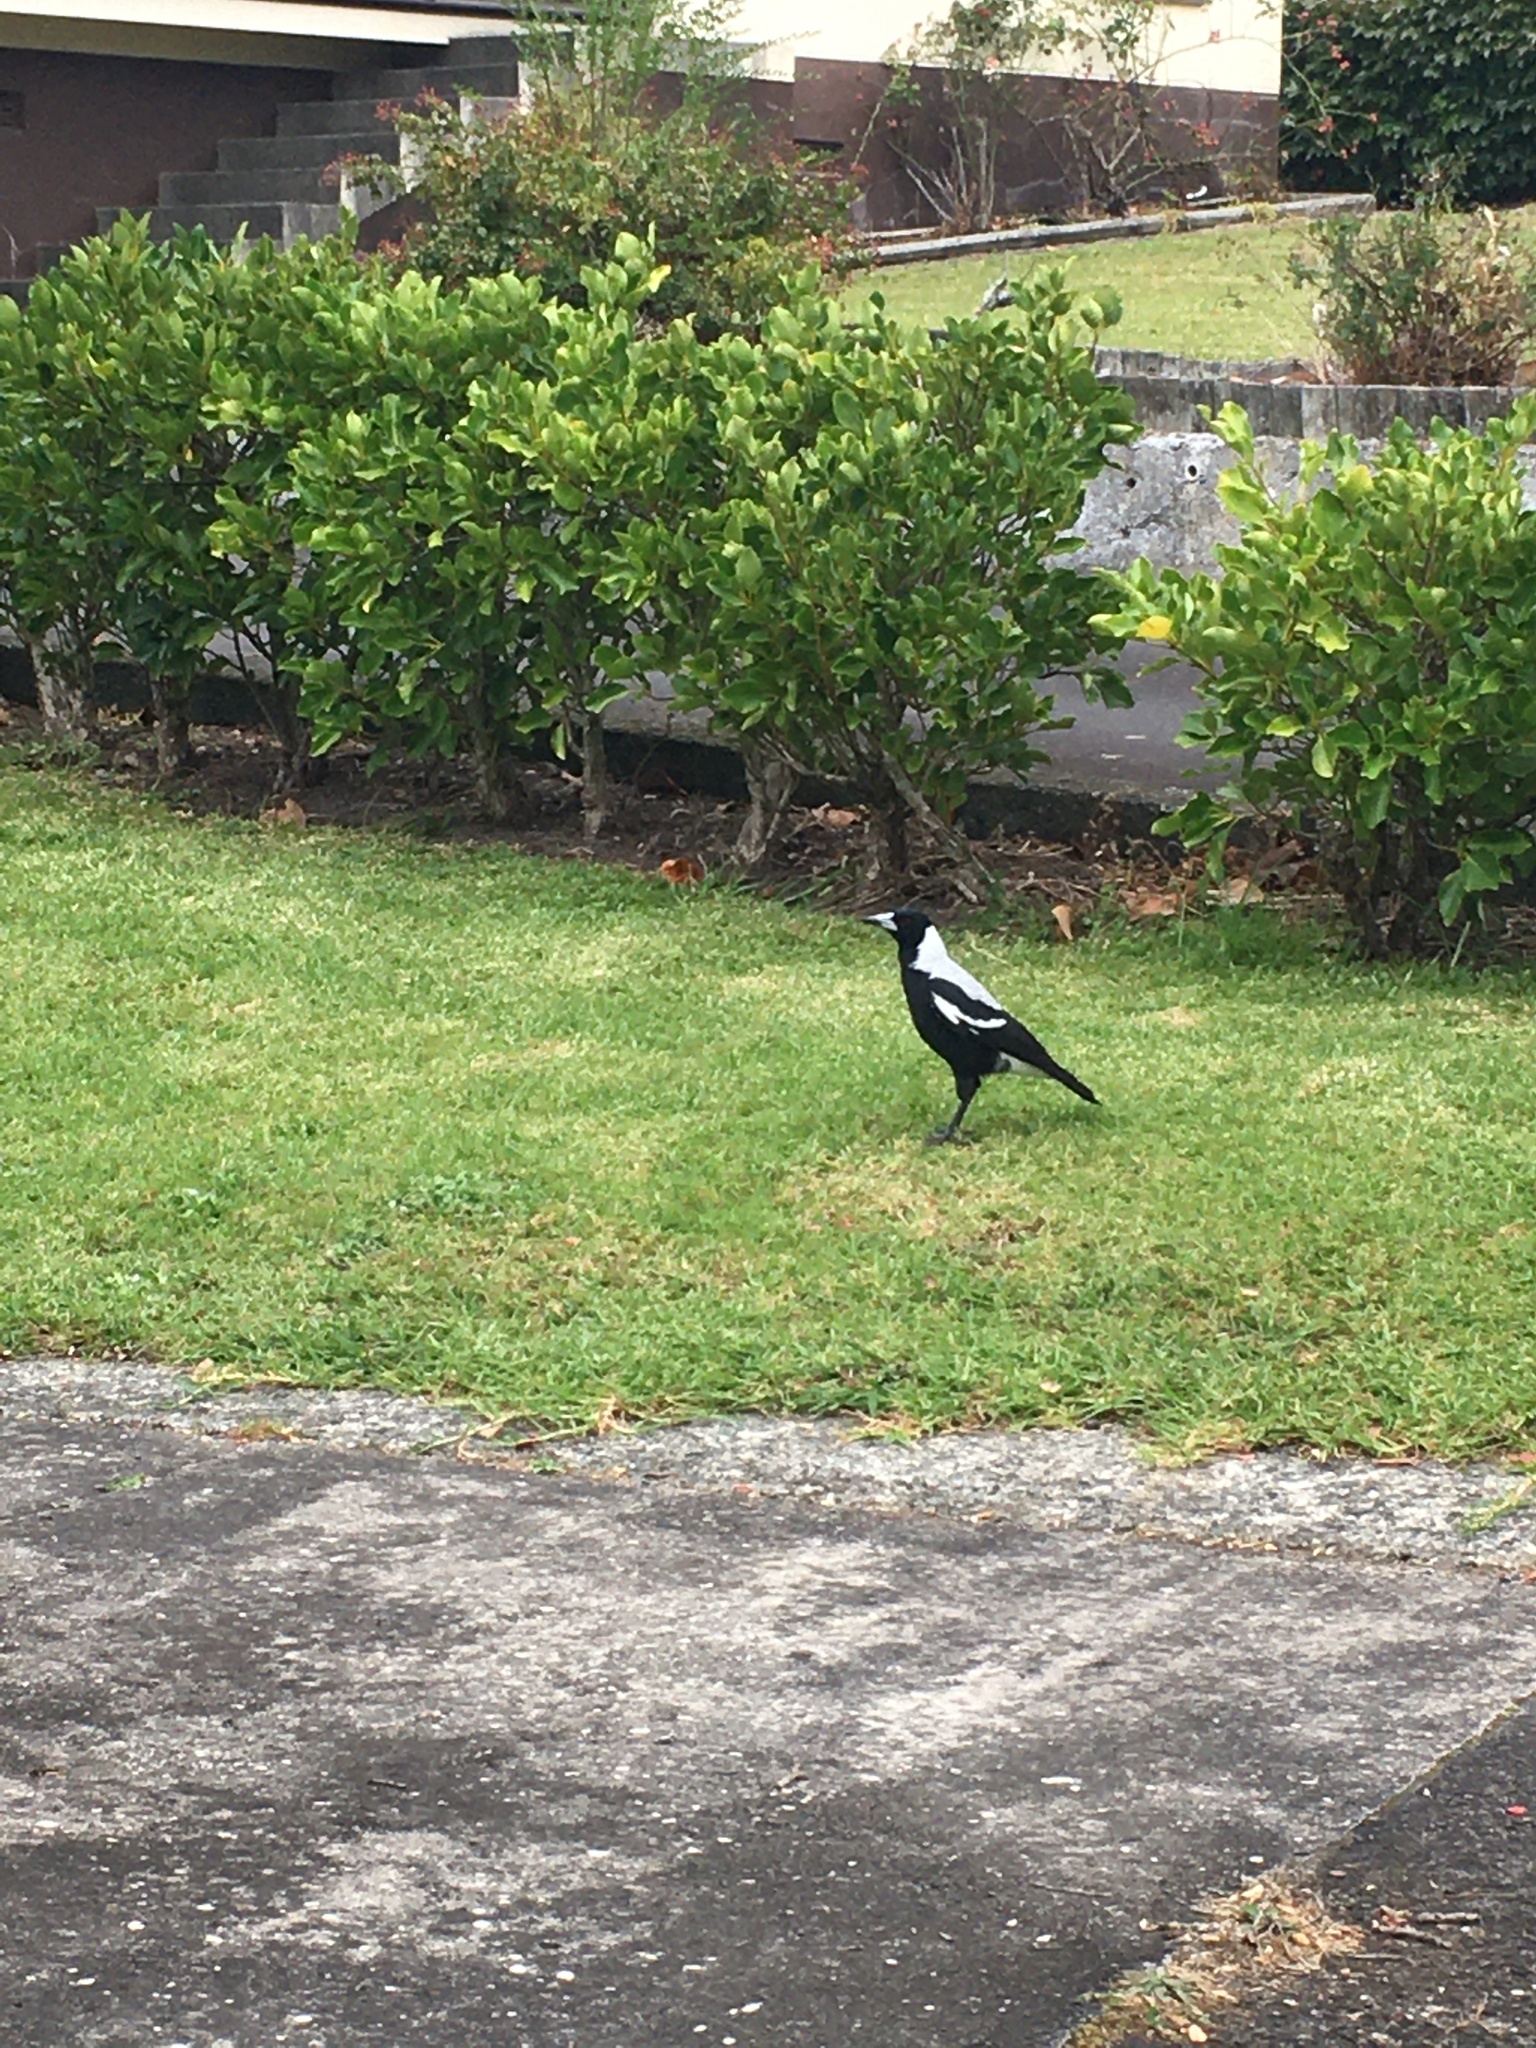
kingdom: Animalia
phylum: Chordata
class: Aves
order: Passeriformes
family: Cracticidae
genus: Gymnorhina
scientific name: Gymnorhina tibicen
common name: Australian magpie
